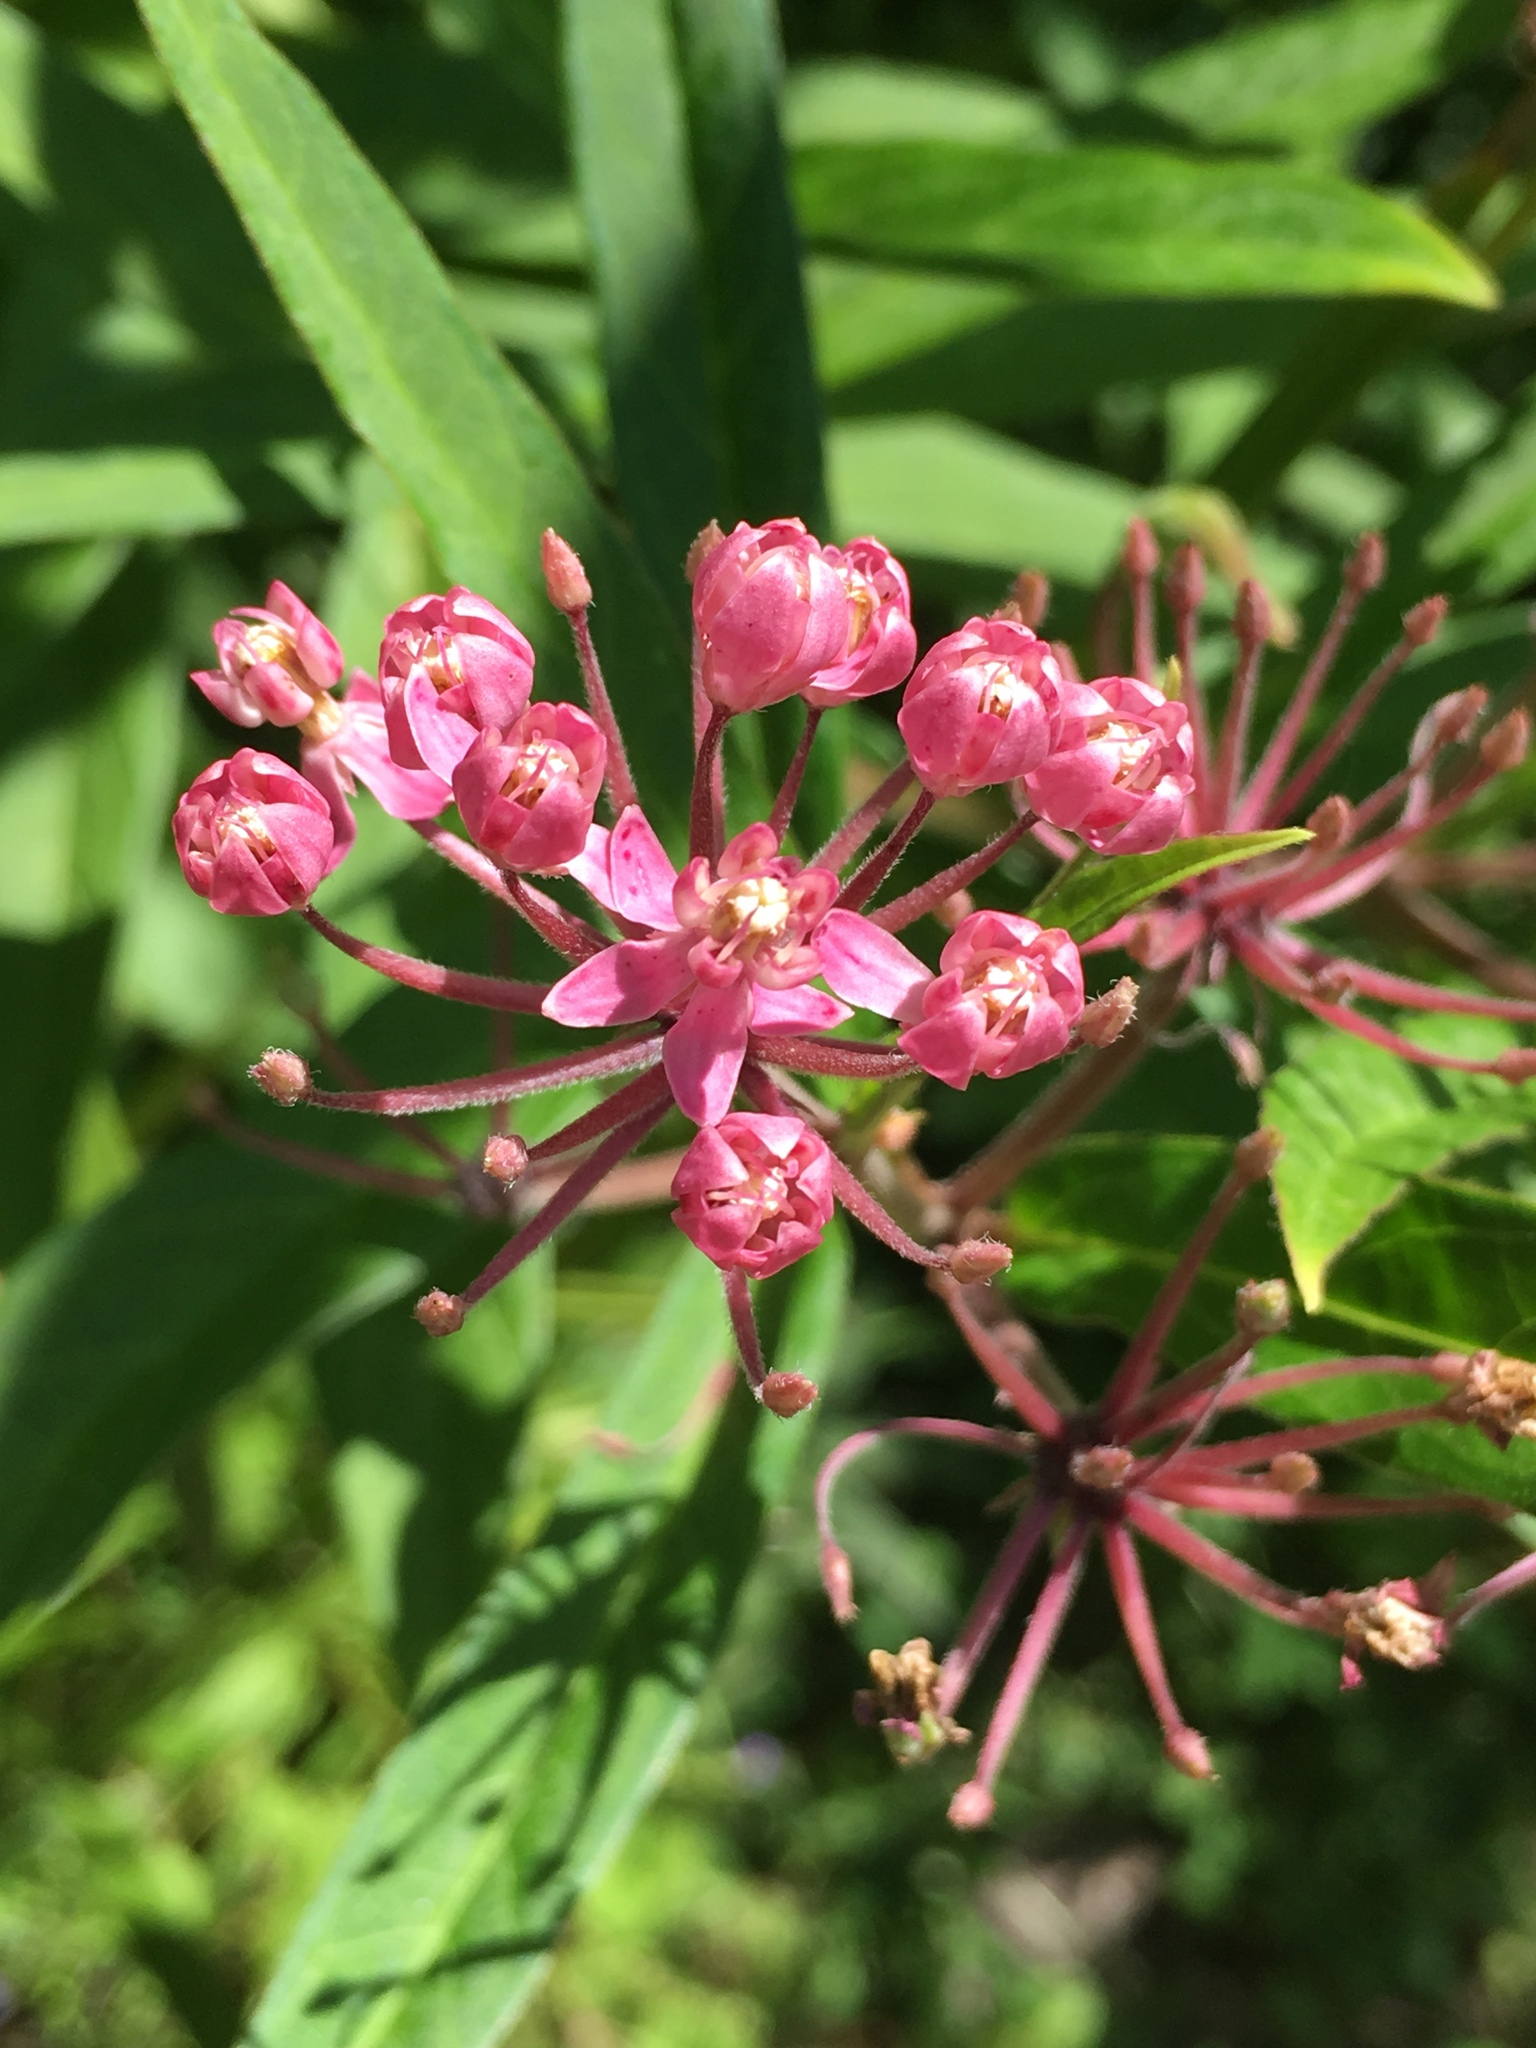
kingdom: Plantae
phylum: Tracheophyta
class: Magnoliopsida
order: Gentianales
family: Apocynaceae
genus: Asclepias
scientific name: Asclepias incarnata
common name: Swamp milkweed
